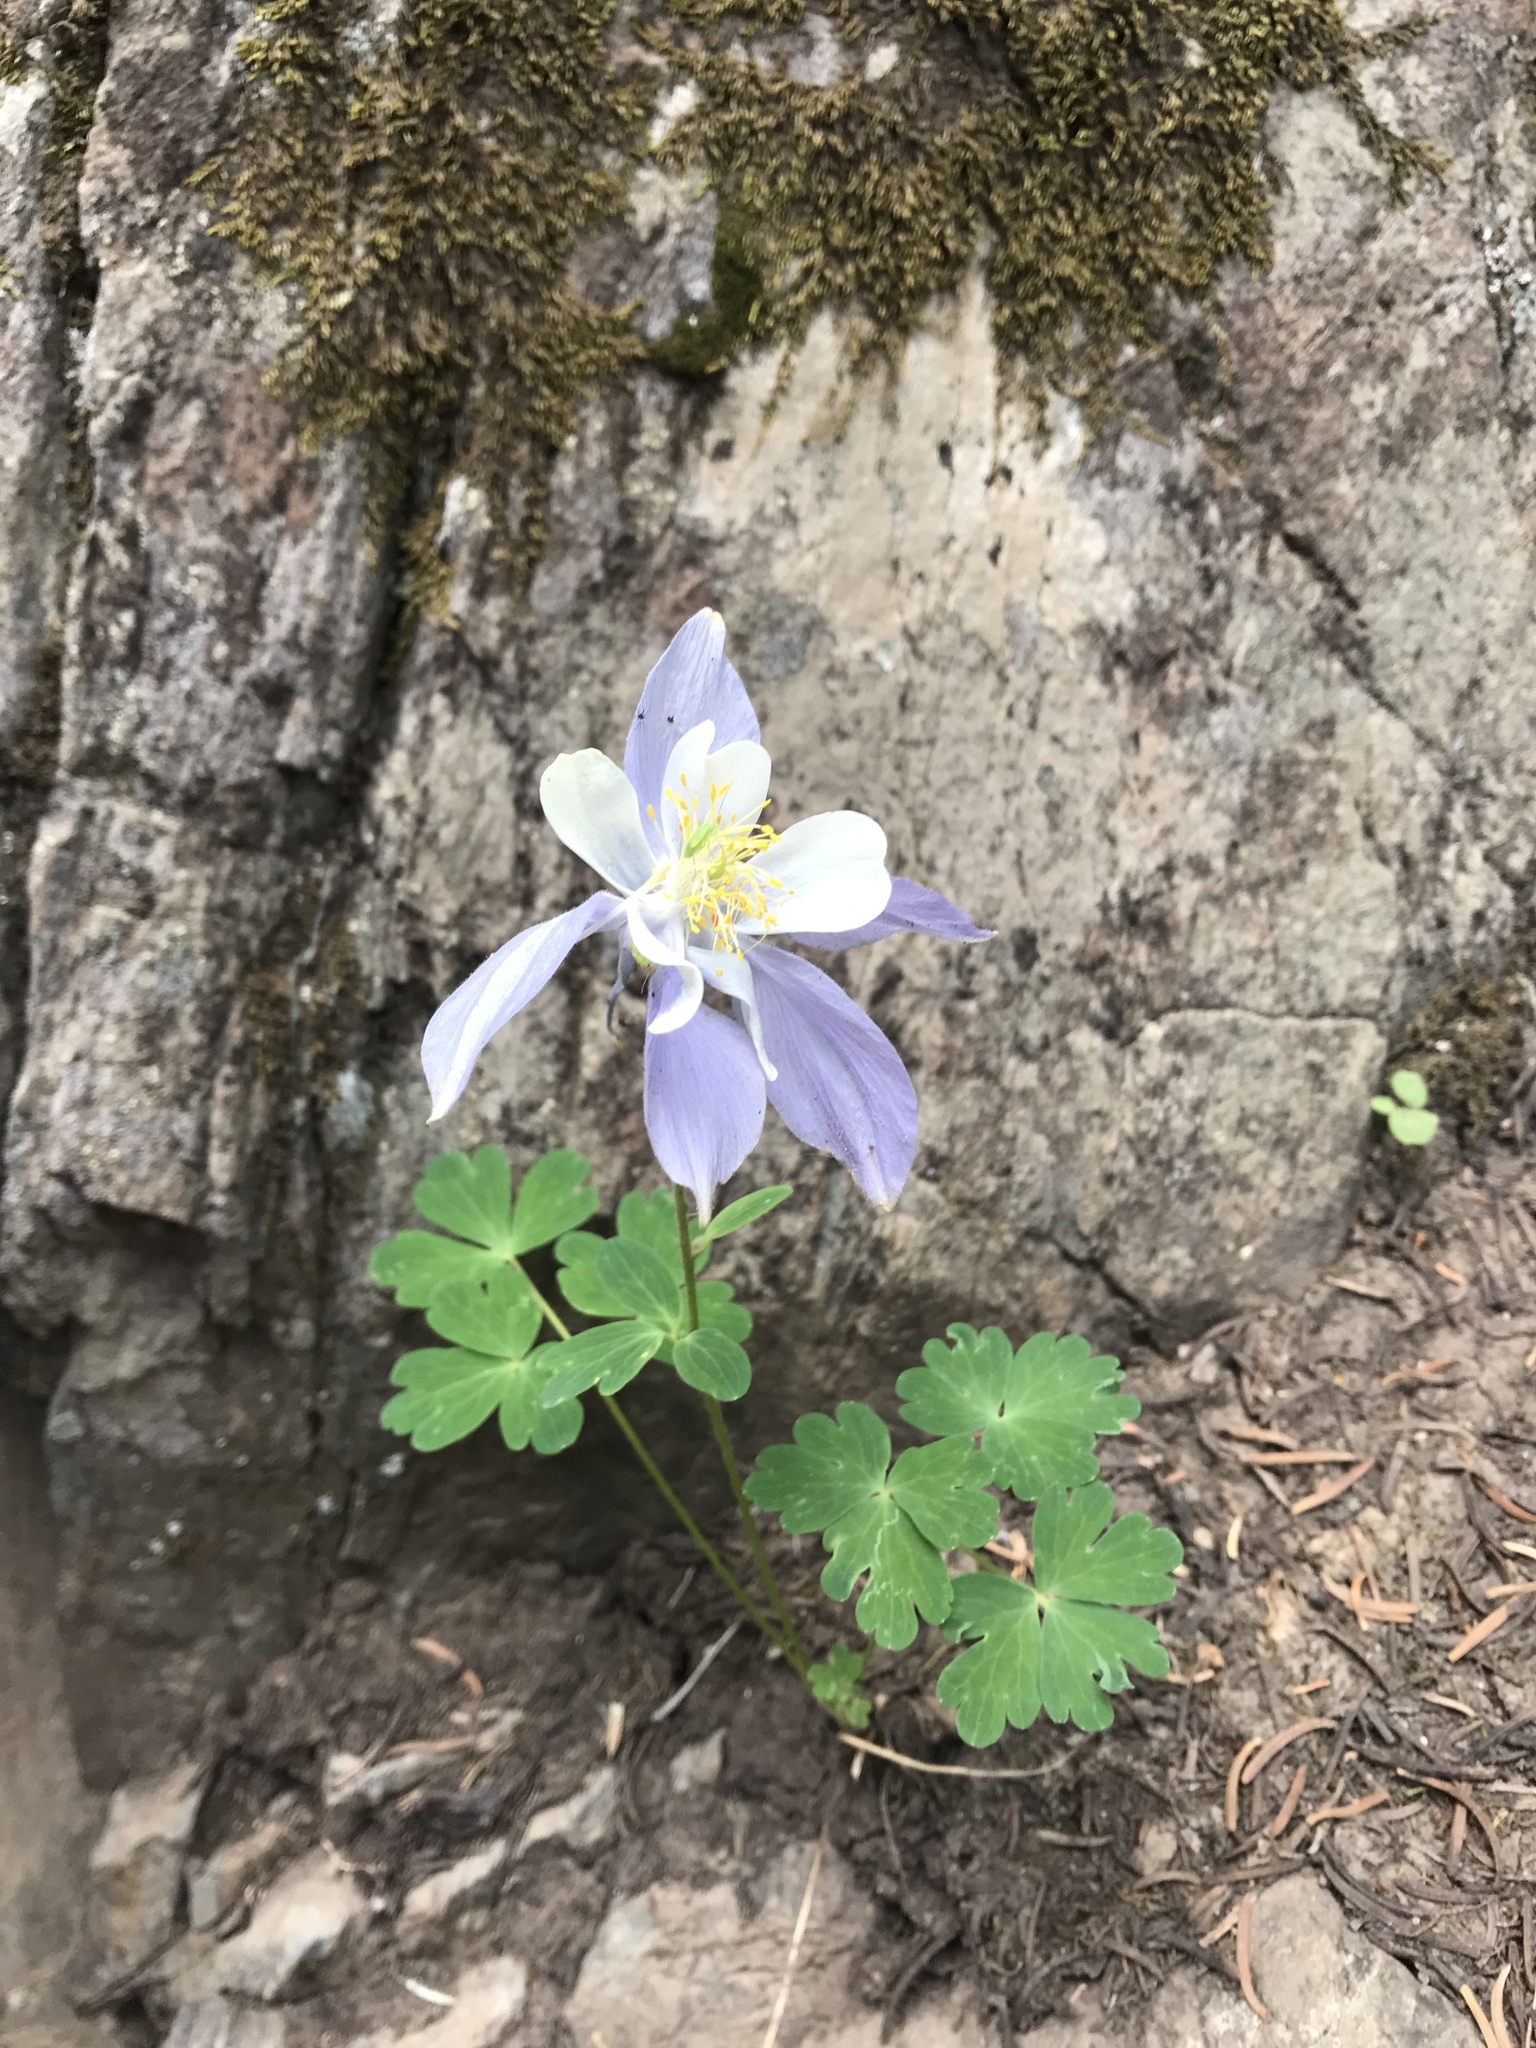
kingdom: Plantae
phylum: Tracheophyta
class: Magnoliopsida
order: Ranunculales
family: Ranunculaceae
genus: Aquilegia
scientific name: Aquilegia coerulea
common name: Rocky mountain columbine
